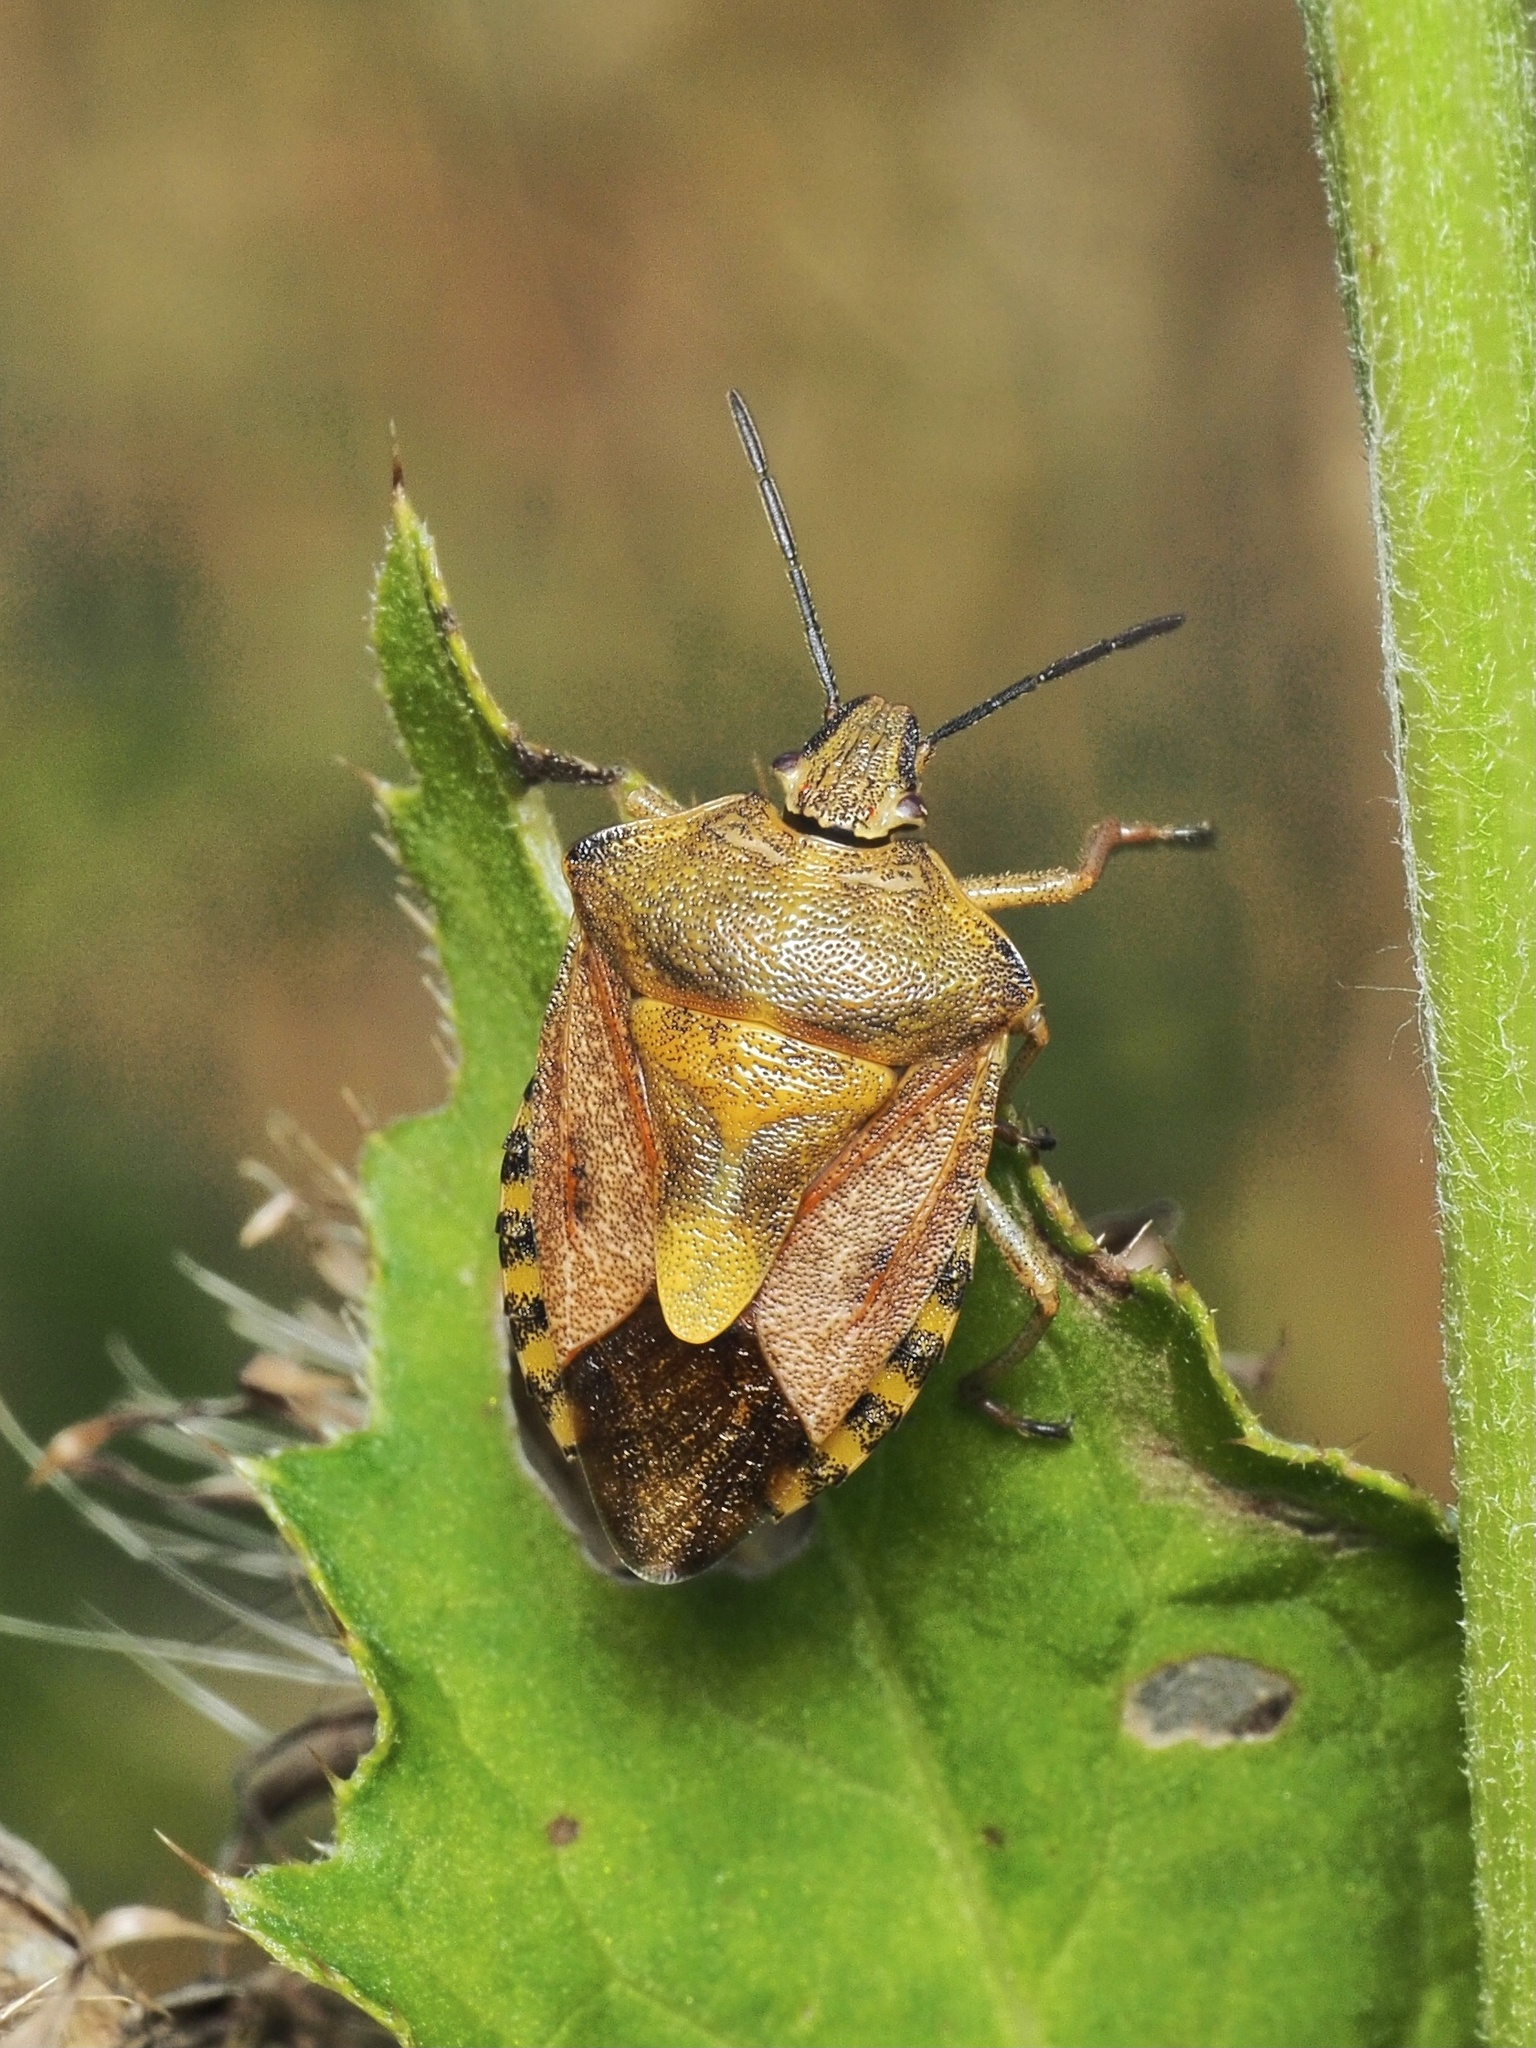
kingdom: Animalia
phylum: Arthropoda
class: Insecta
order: Hemiptera
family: Pentatomidae
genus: Carpocoris
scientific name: Carpocoris purpureipennis
